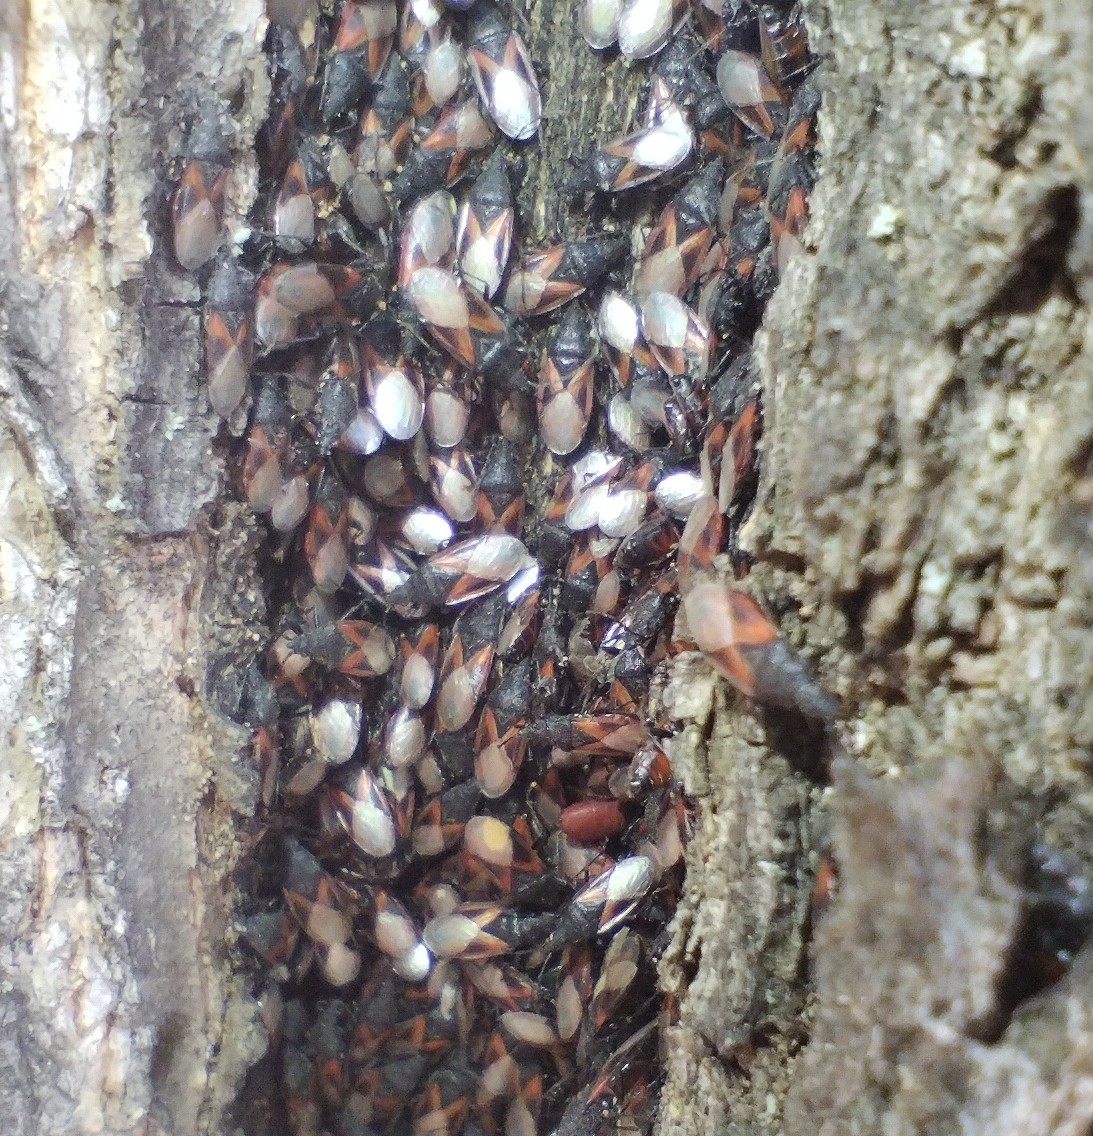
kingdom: Animalia
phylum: Arthropoda
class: Insecta
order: Hemiptera
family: Oxycarenidae
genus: Oxycarenus
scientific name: Oxycarenus lavaterae
